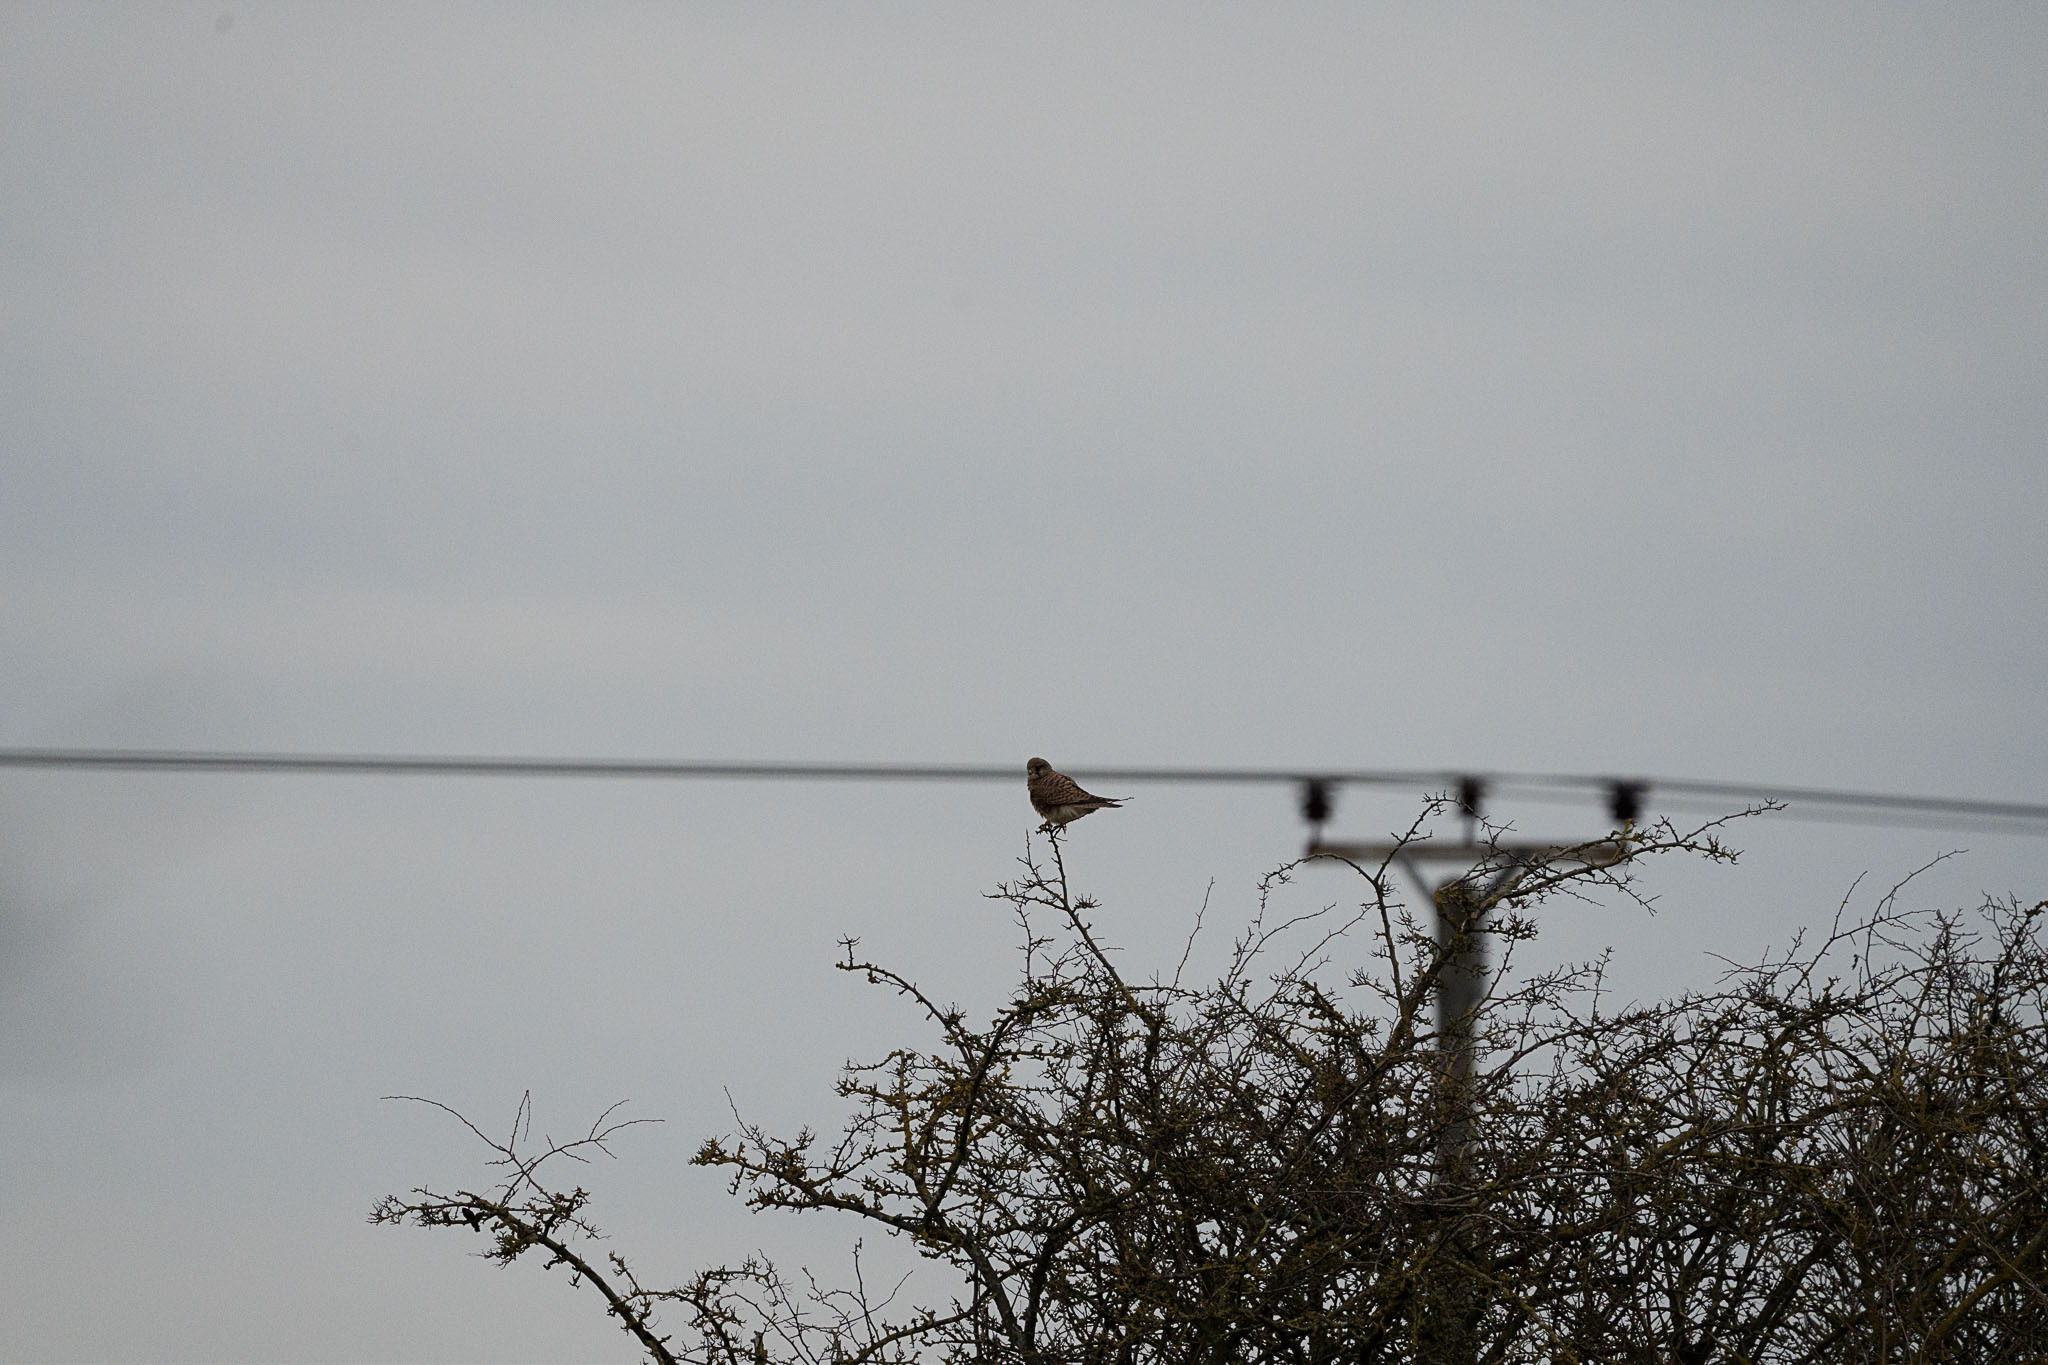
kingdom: Animalia
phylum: Chordata
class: Aves
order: Falconiformes
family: Falconidae
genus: Falco
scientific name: Falco tinnunculus
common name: Common kestrel
